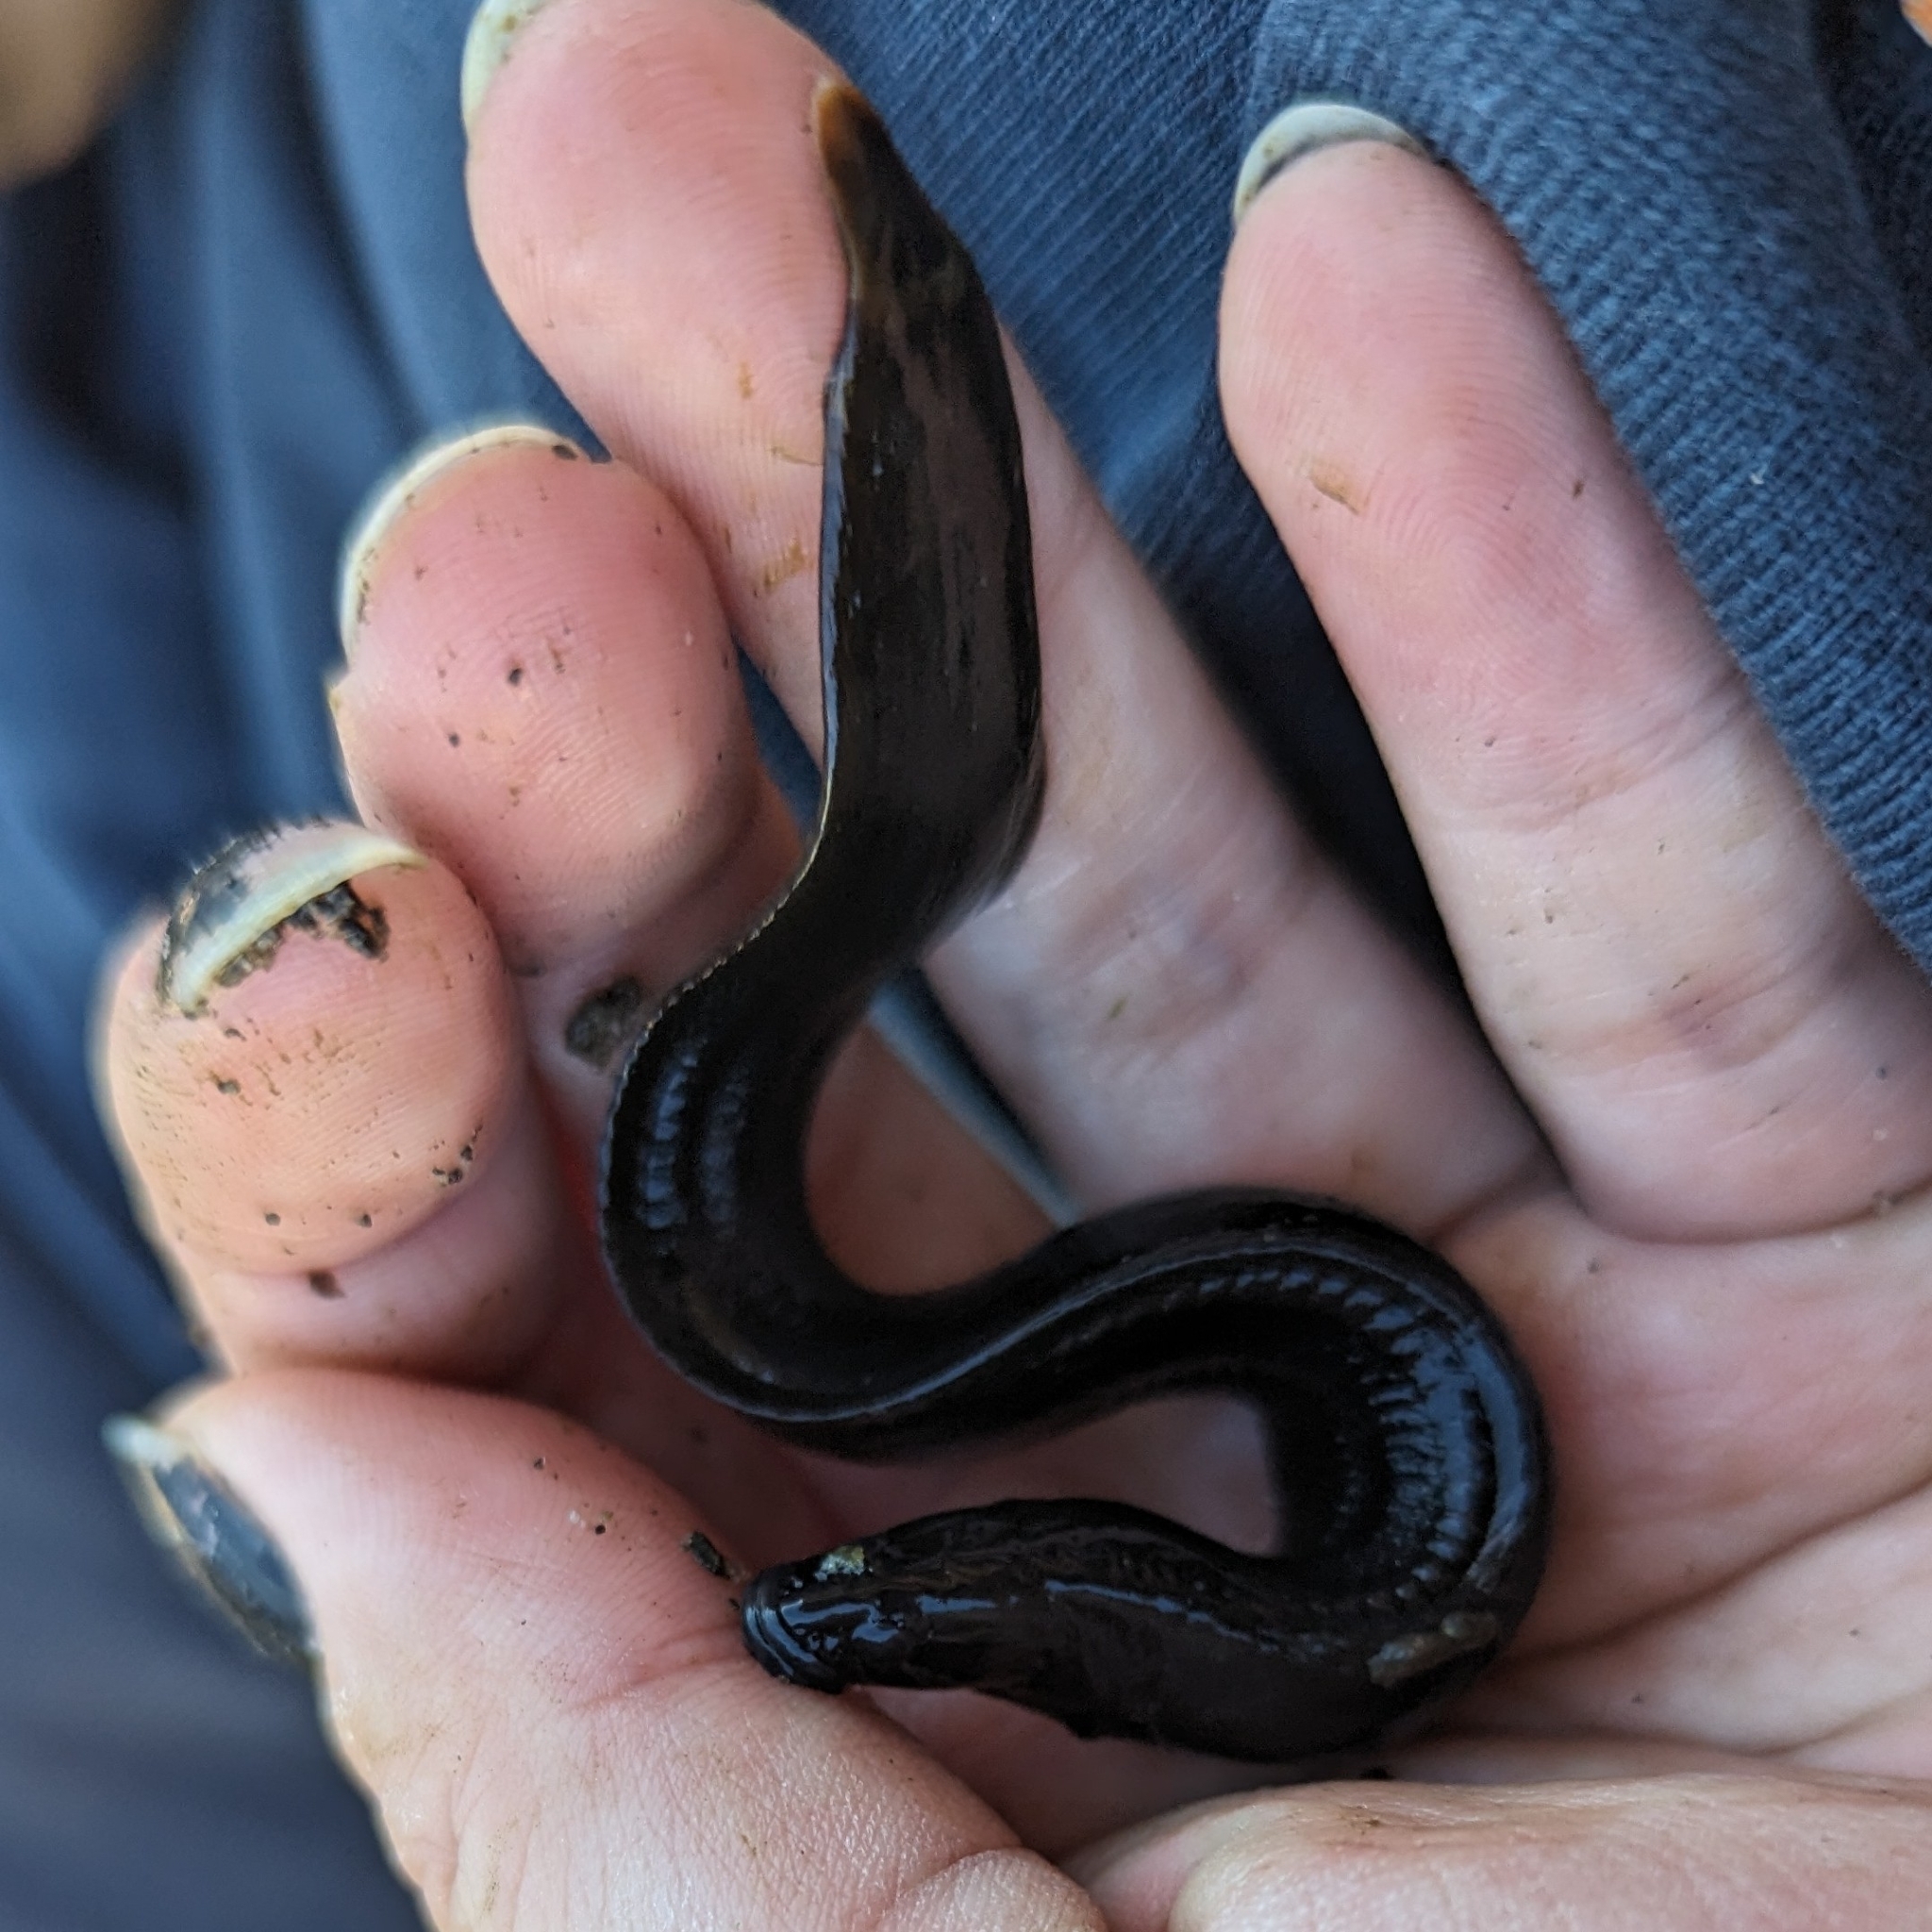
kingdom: Animalia
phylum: Chordata
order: Perciformes
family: Stichaeidae
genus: Xiphister
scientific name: Xiphister atropurpureus
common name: Black prickleback
